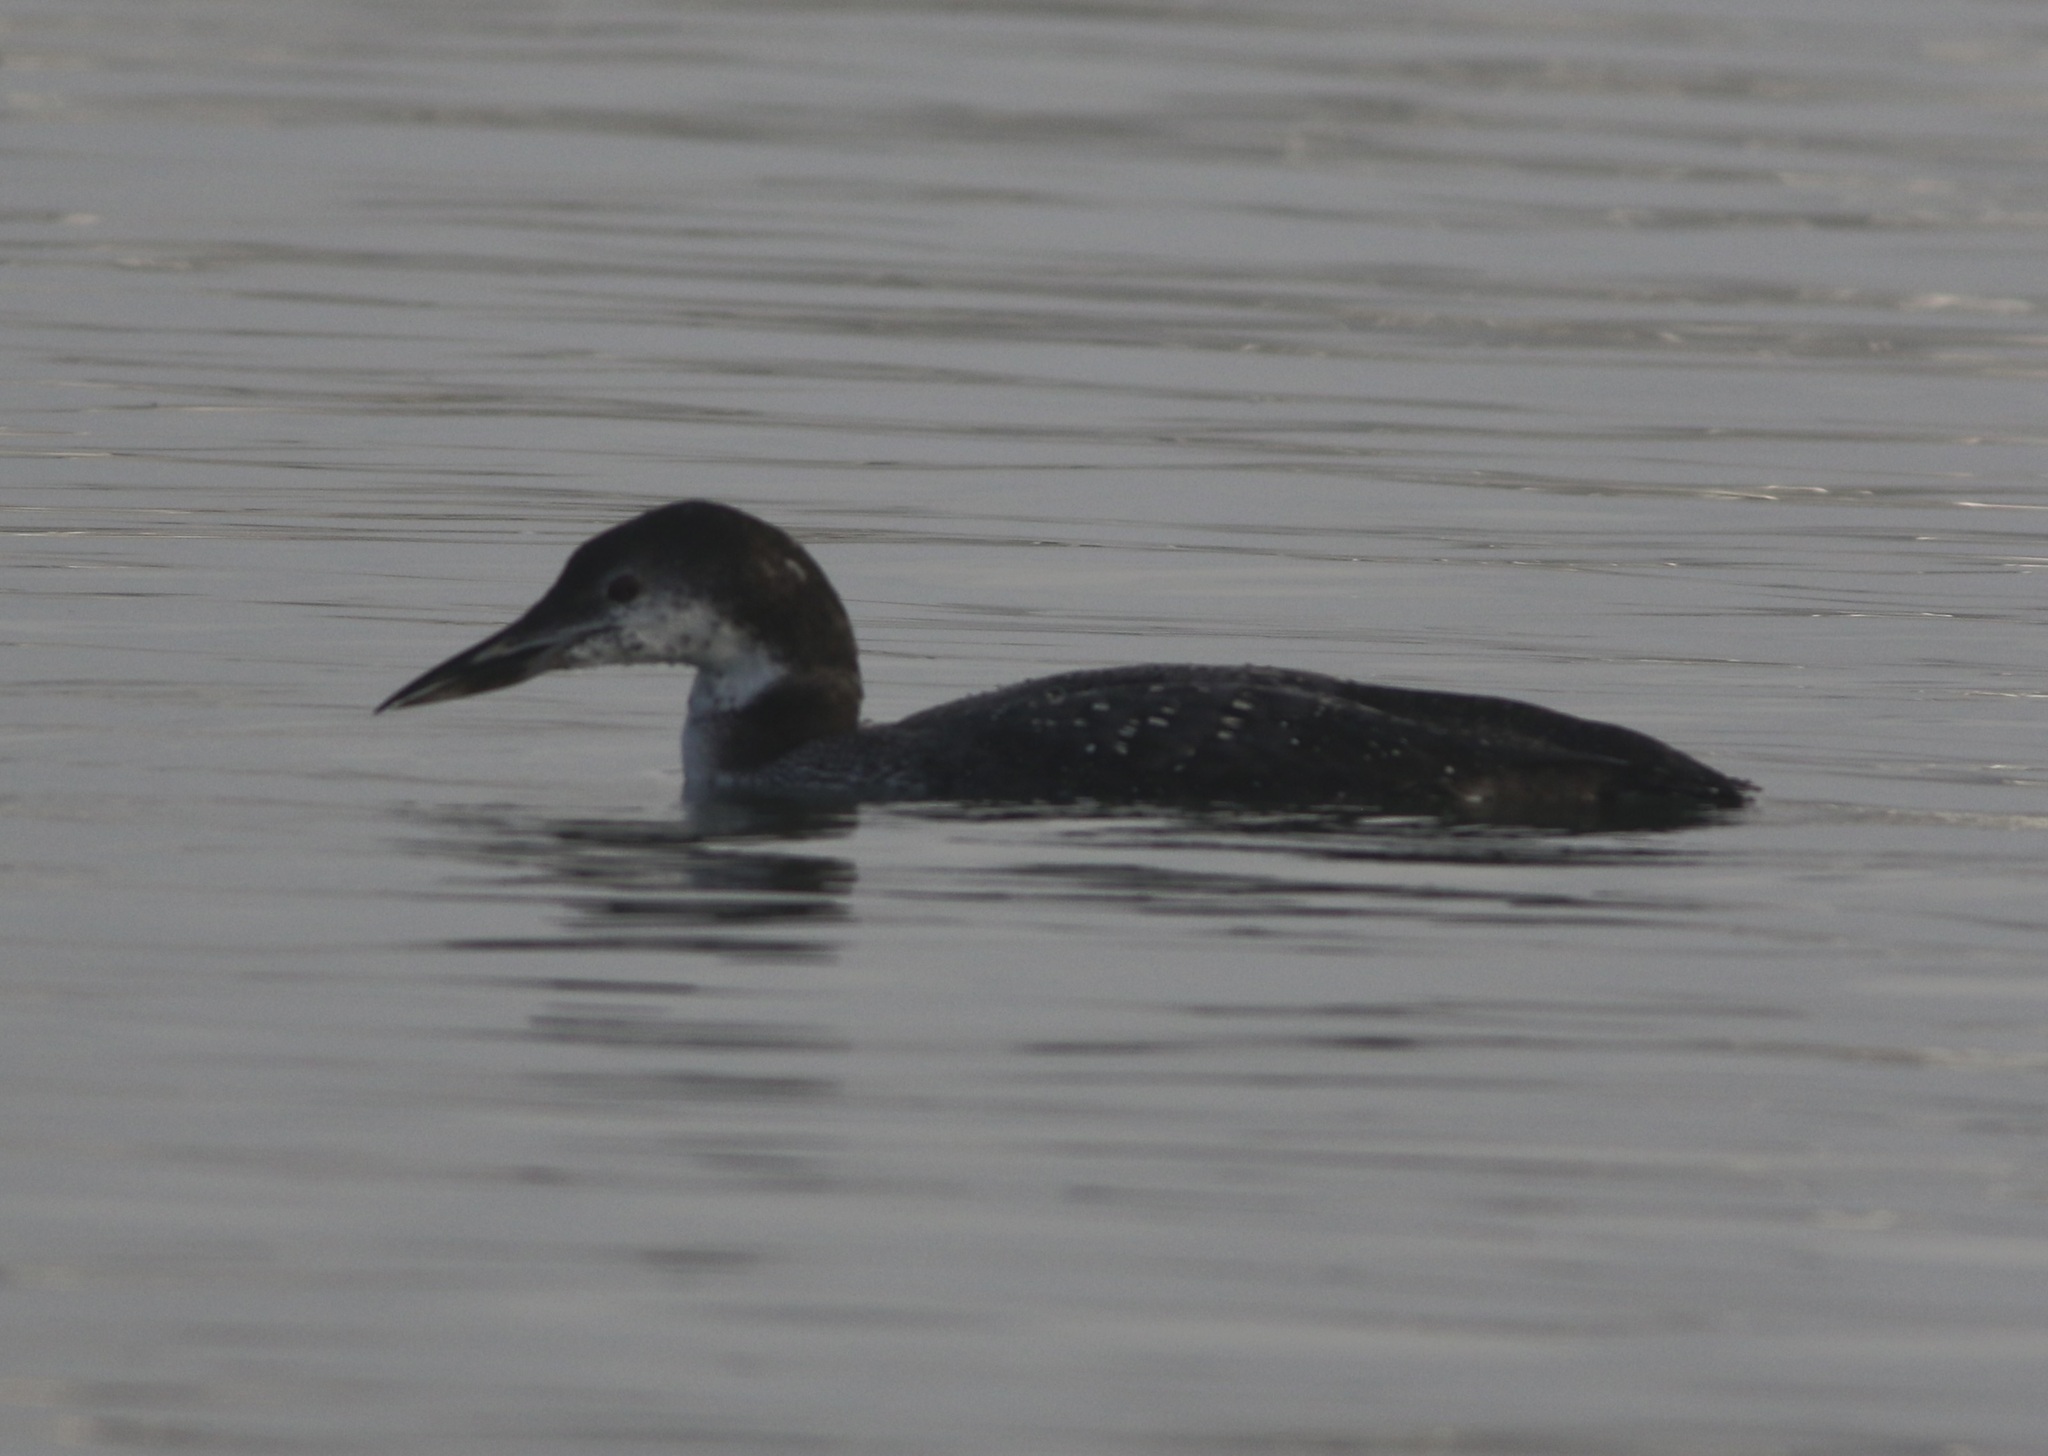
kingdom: Animalia
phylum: Chordata
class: Aves
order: Gaviiformes
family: Gaviidae
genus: Gavia
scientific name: Gavia immer
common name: Common loon
